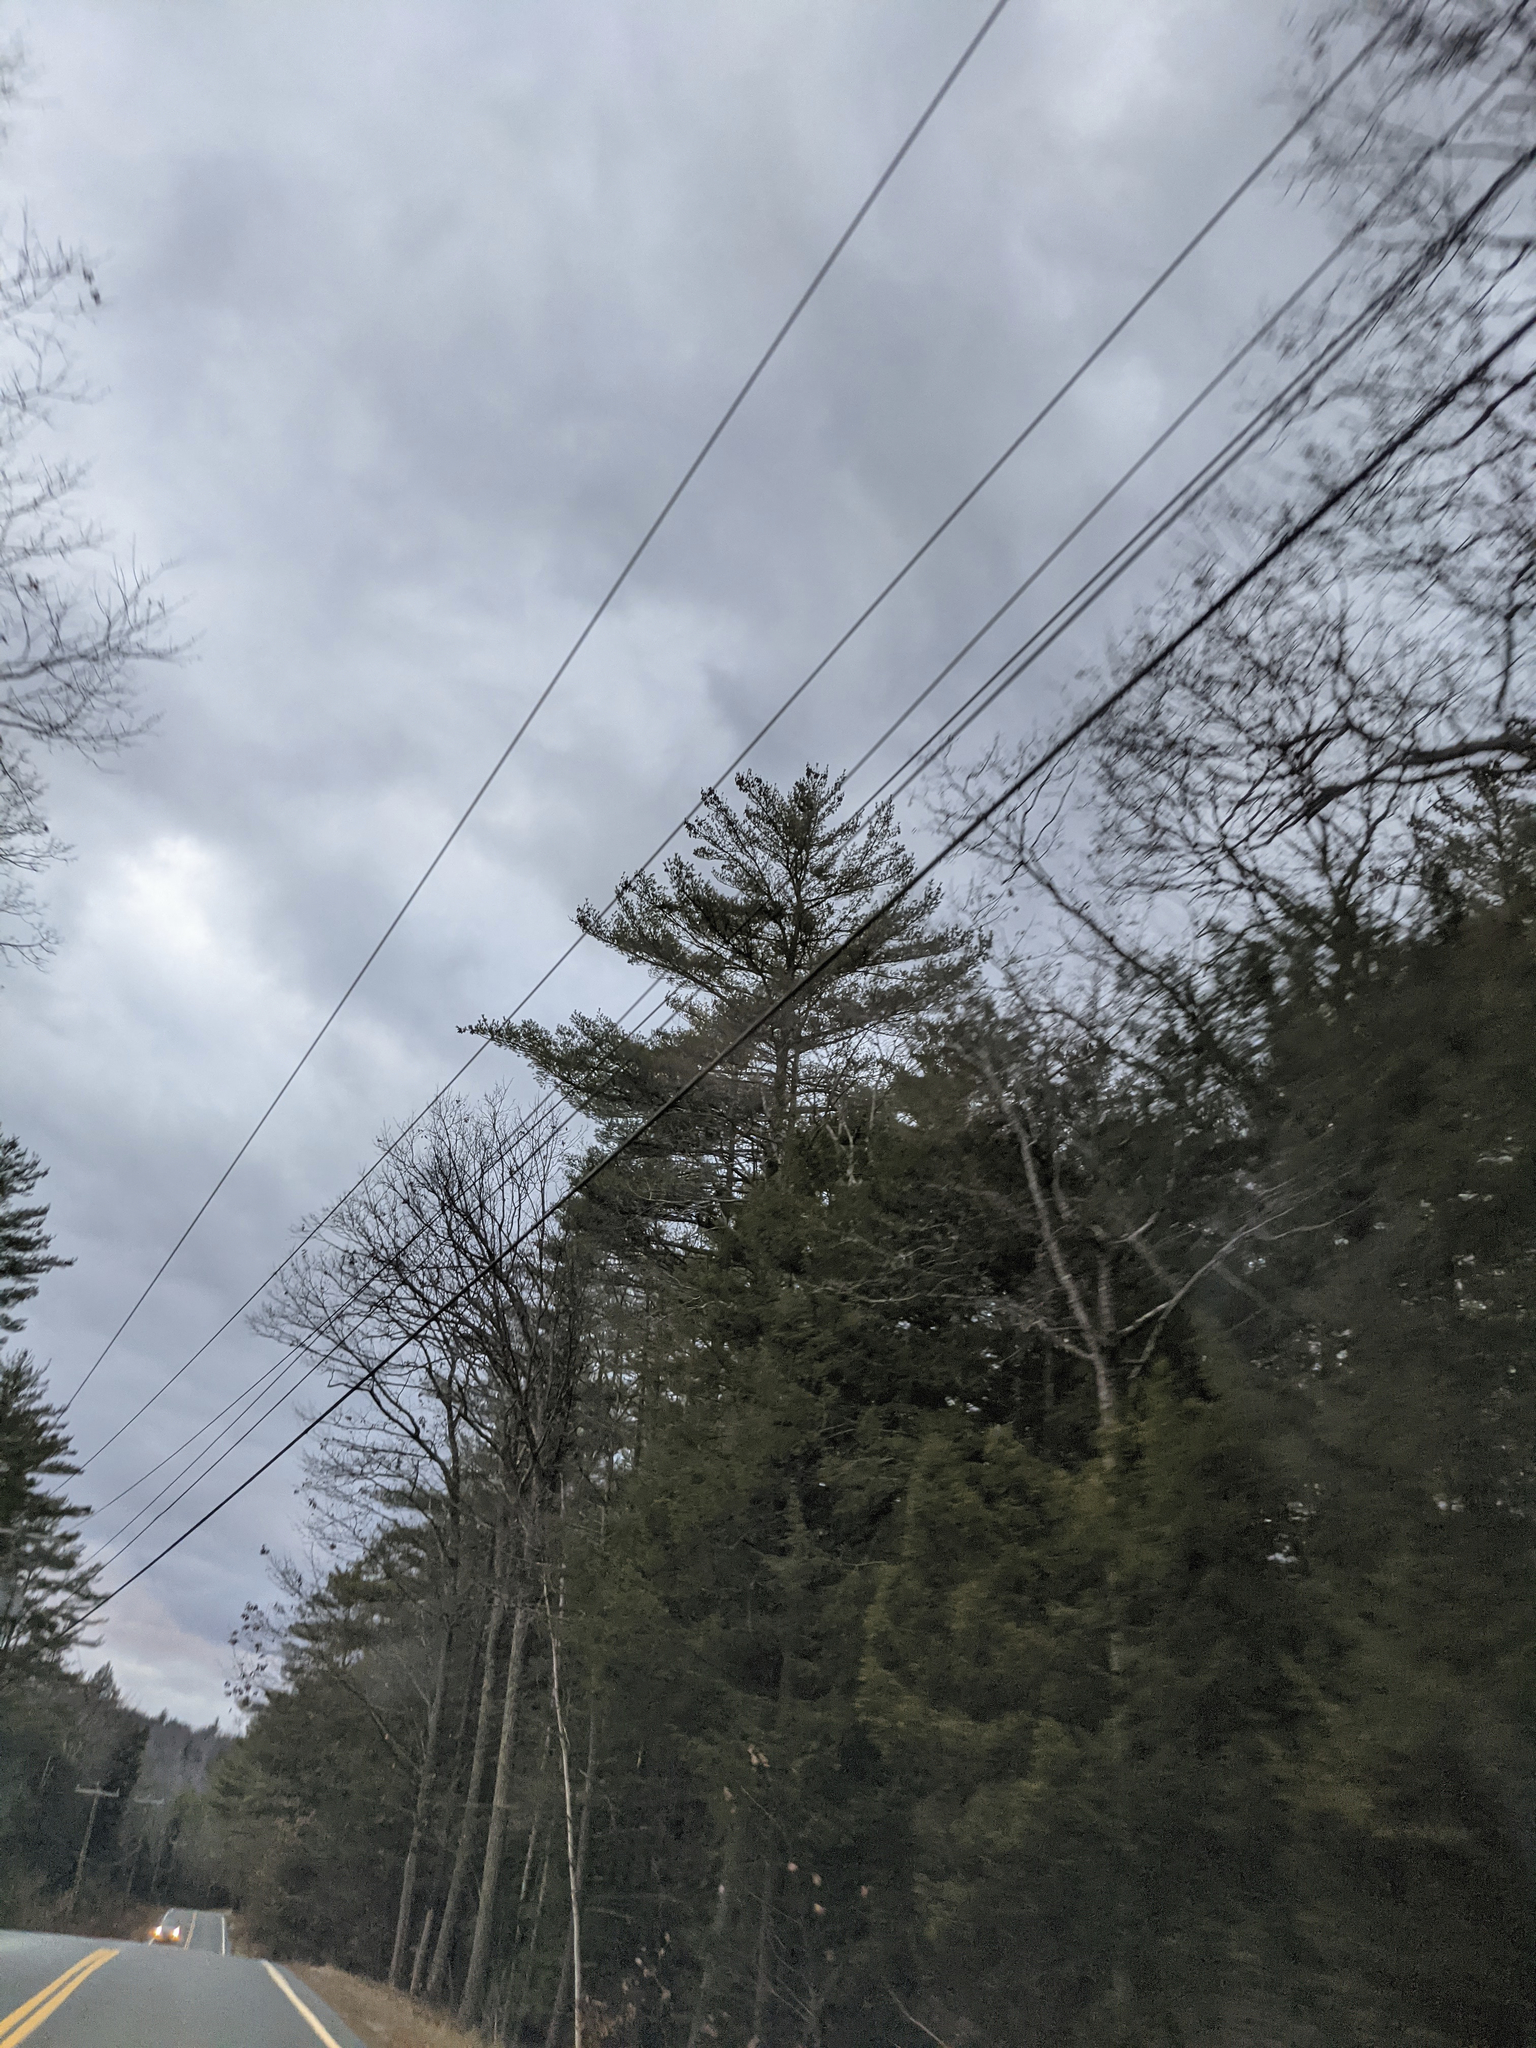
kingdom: Plantae
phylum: Tracheophyta
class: Pinopsida
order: Pinales
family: Pinaceae
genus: Pinus
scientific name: Pinus strobus
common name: Weymouth pine
